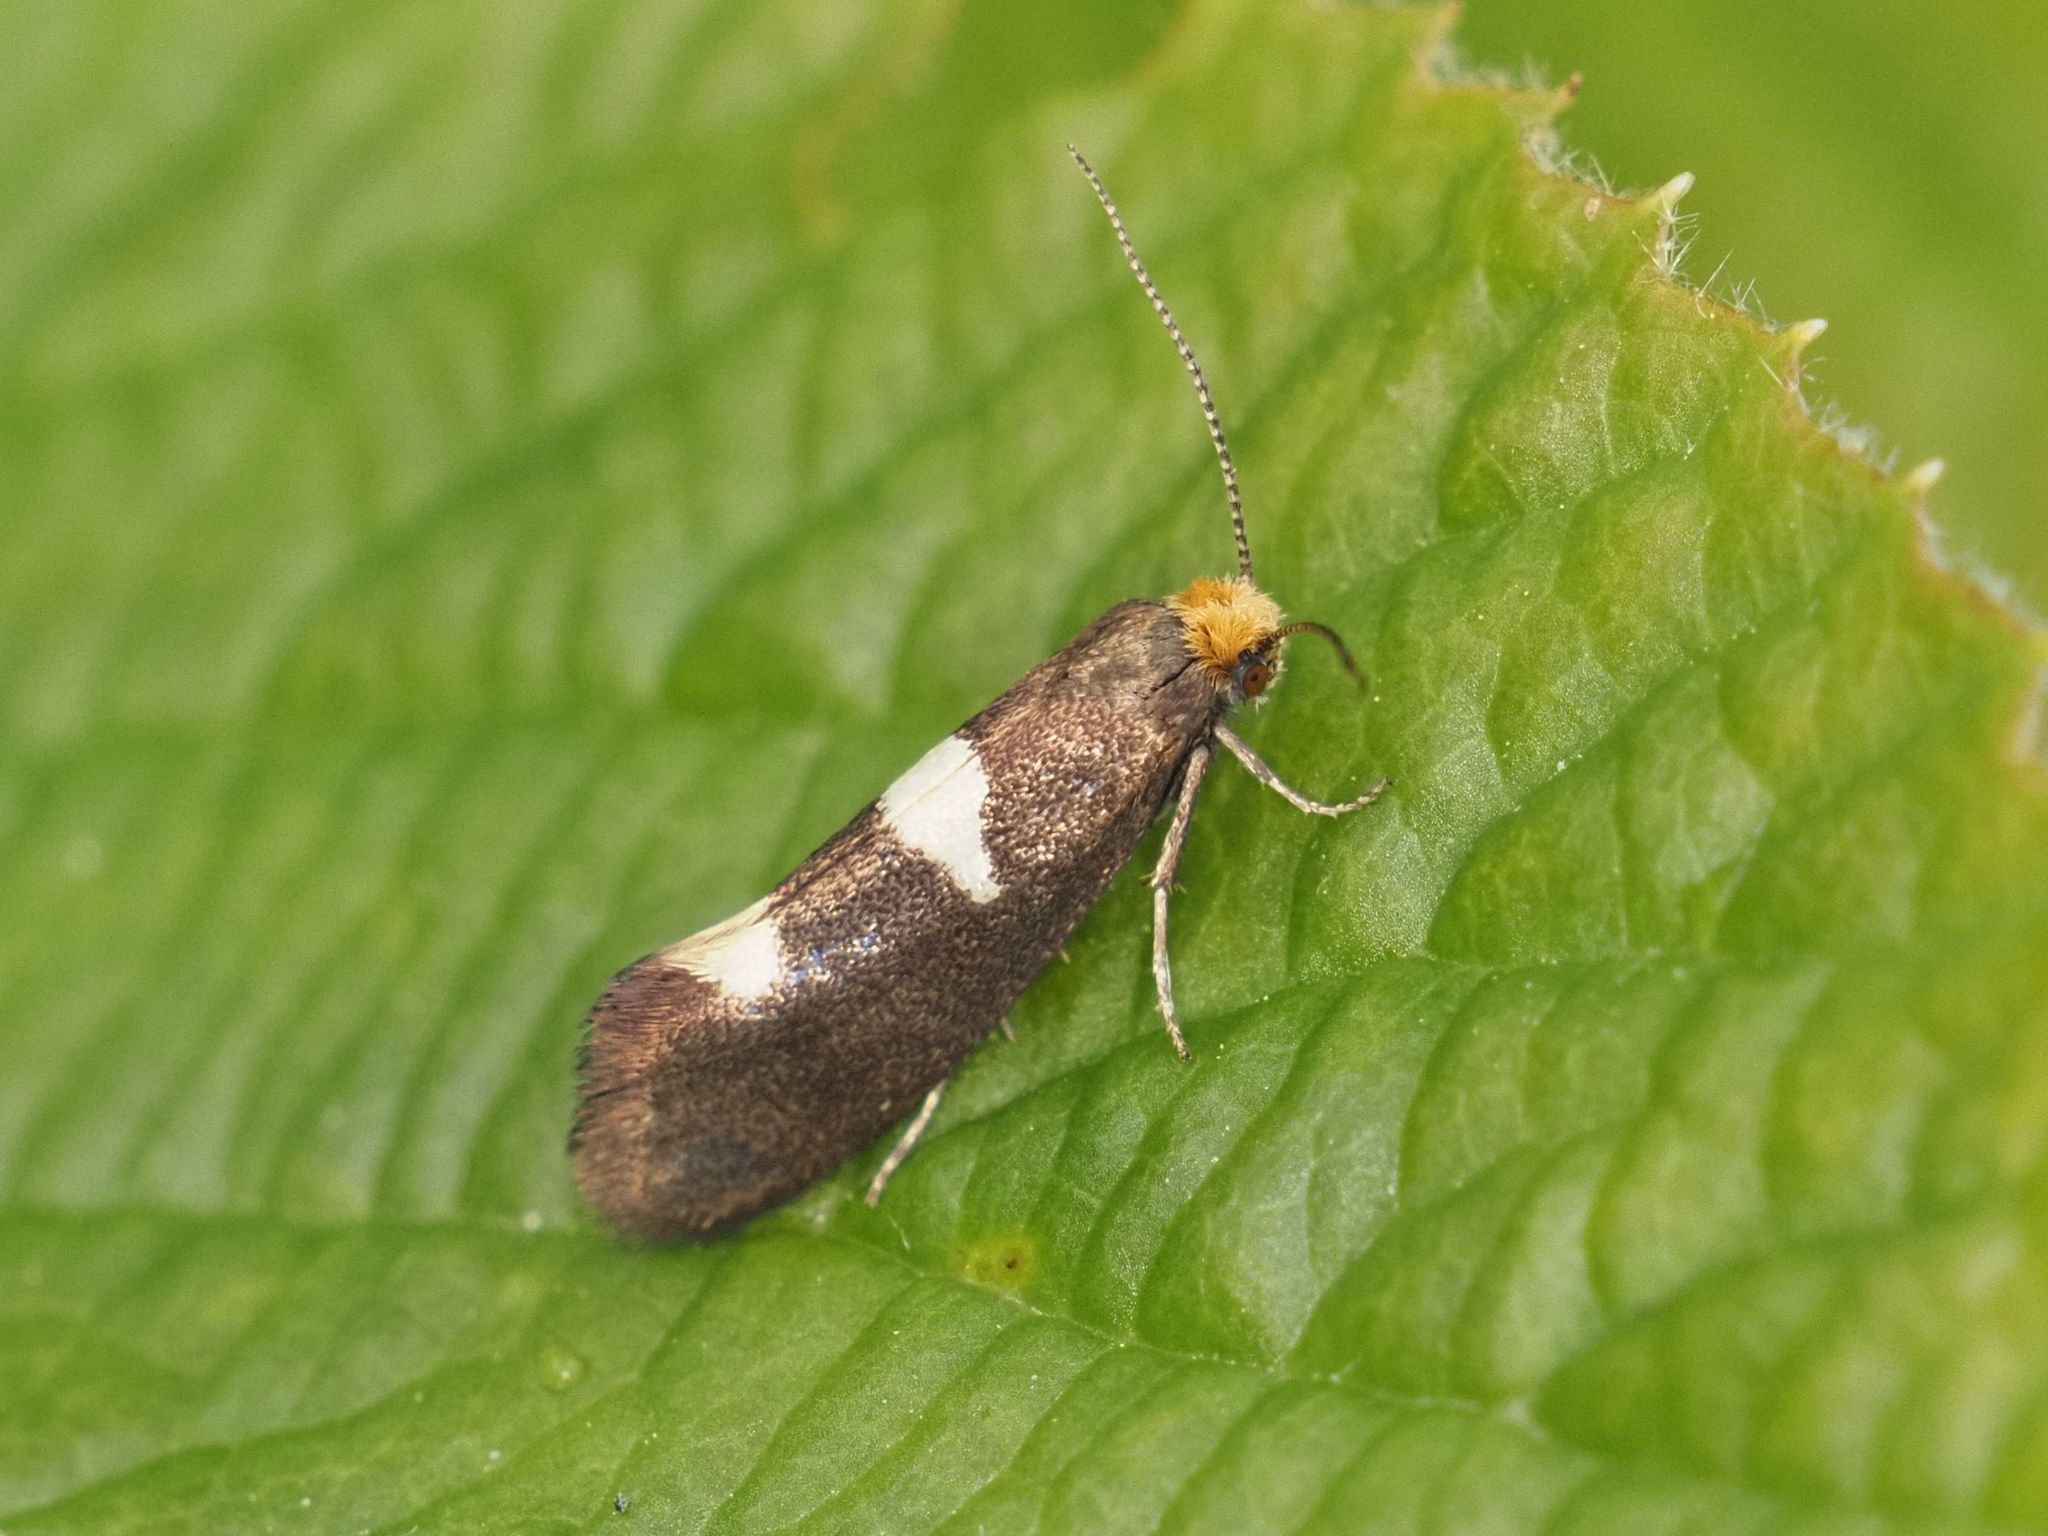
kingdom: Animalia
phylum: Arthropoda
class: Insecta
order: Lepidoptera
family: Incurvariidae
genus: Incurvaria
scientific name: Incurvaria masculella
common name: Feathered leaf-cutter
